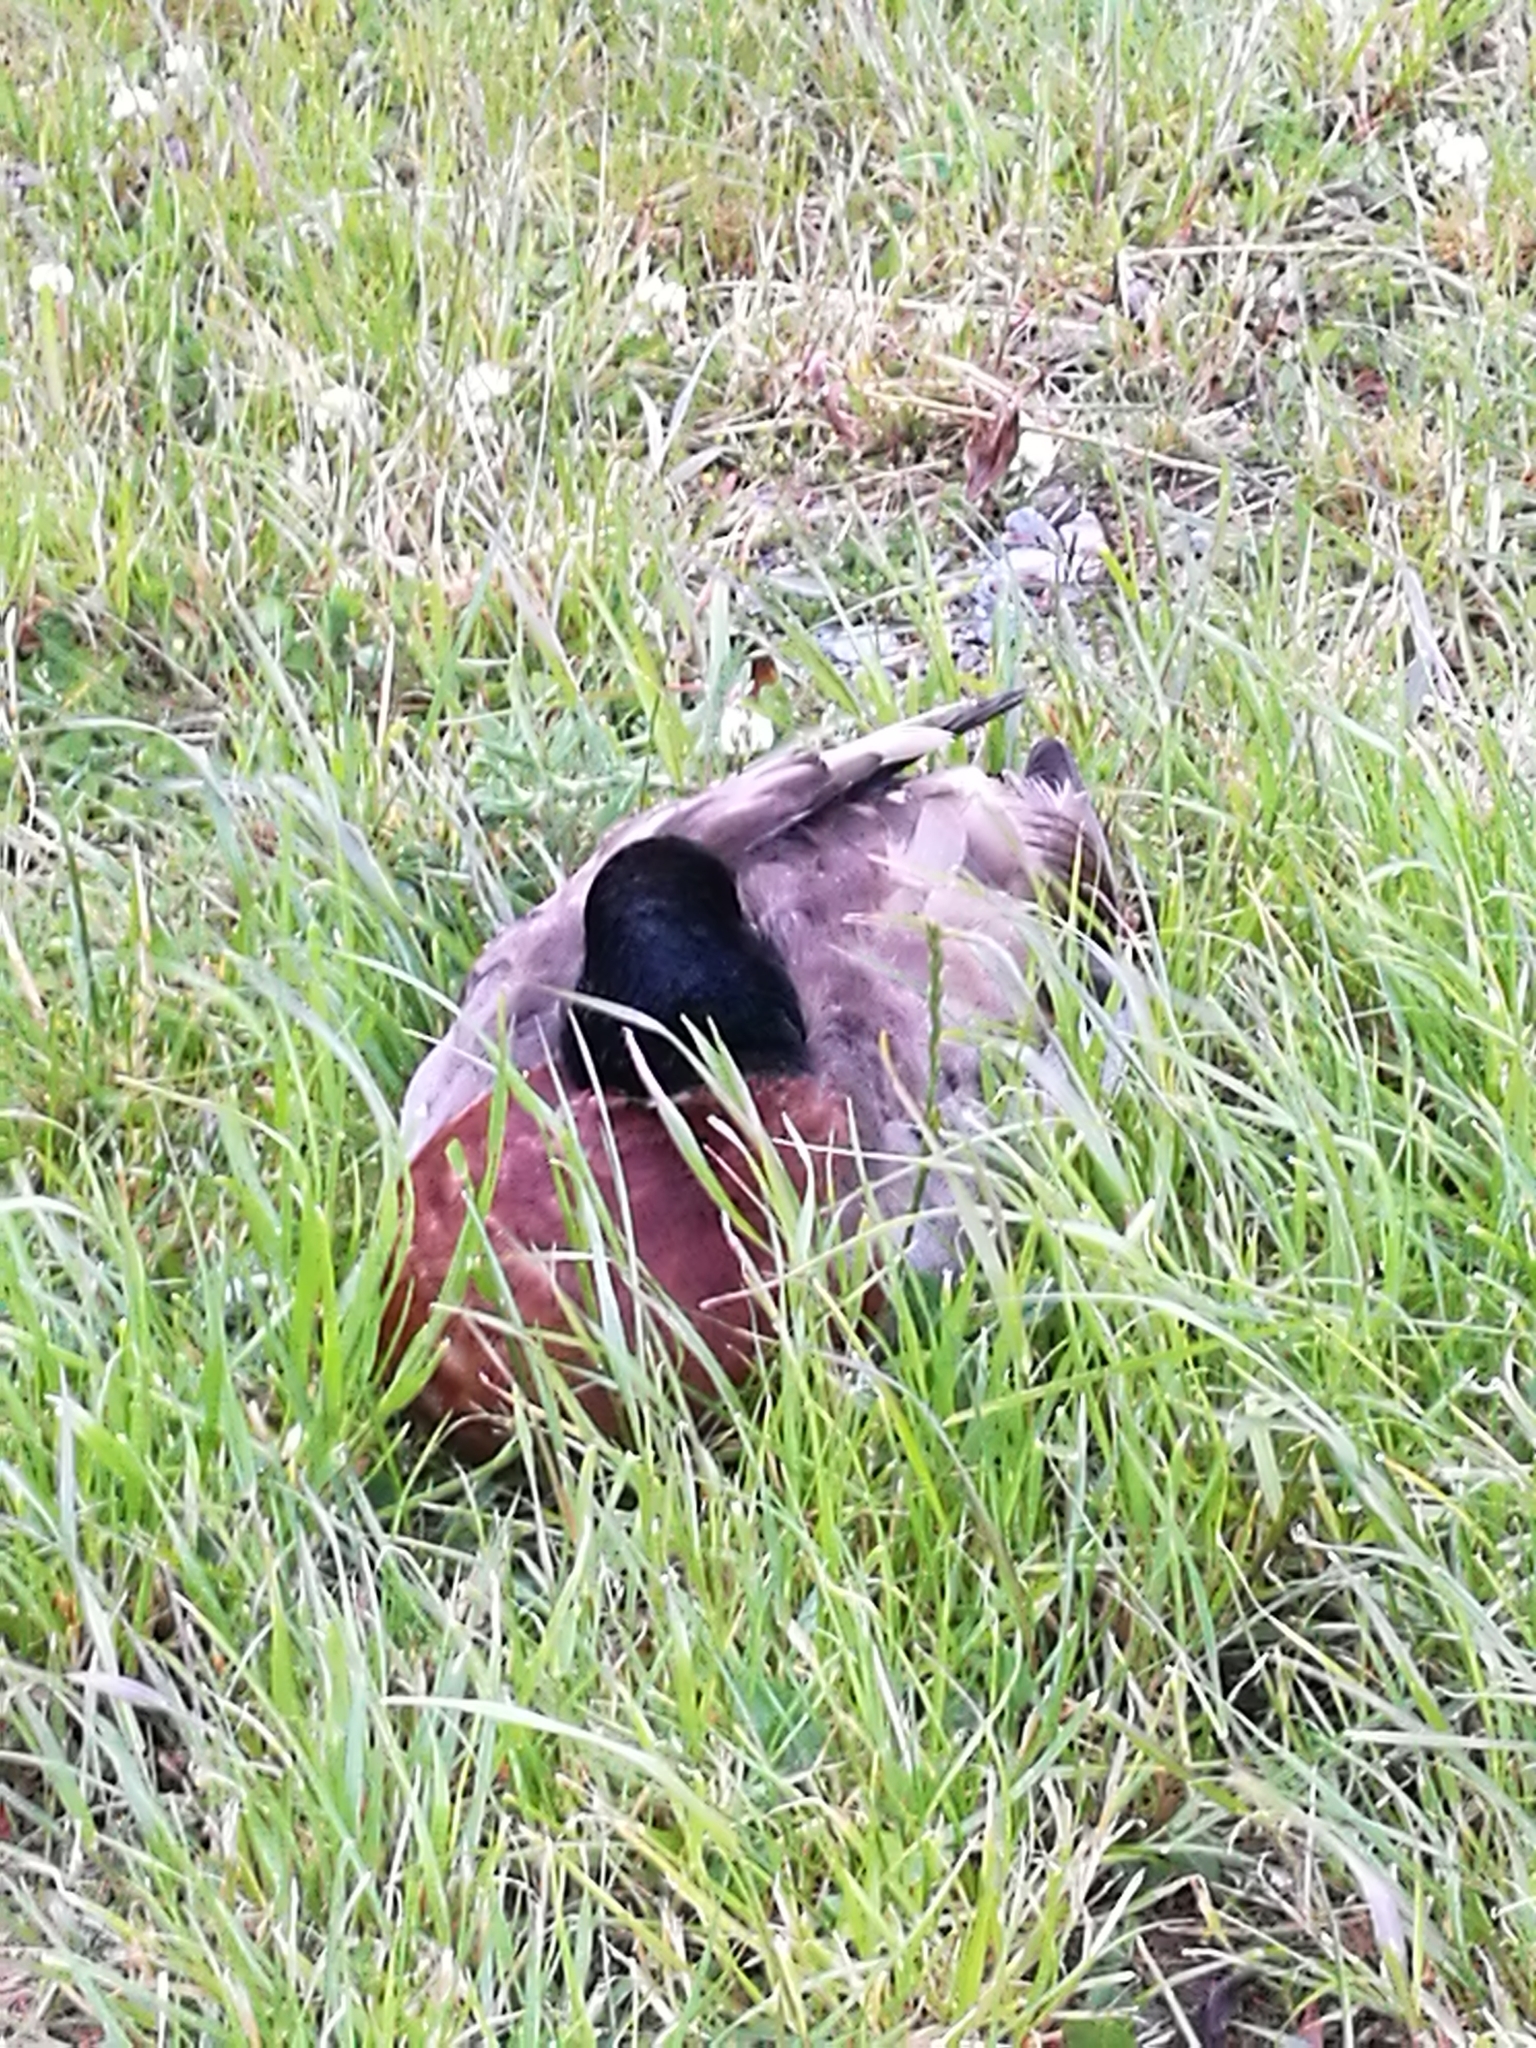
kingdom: Animalia
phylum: Chordata
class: Aves
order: Anseriformes
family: Anatidae
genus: Anas
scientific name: Anas
